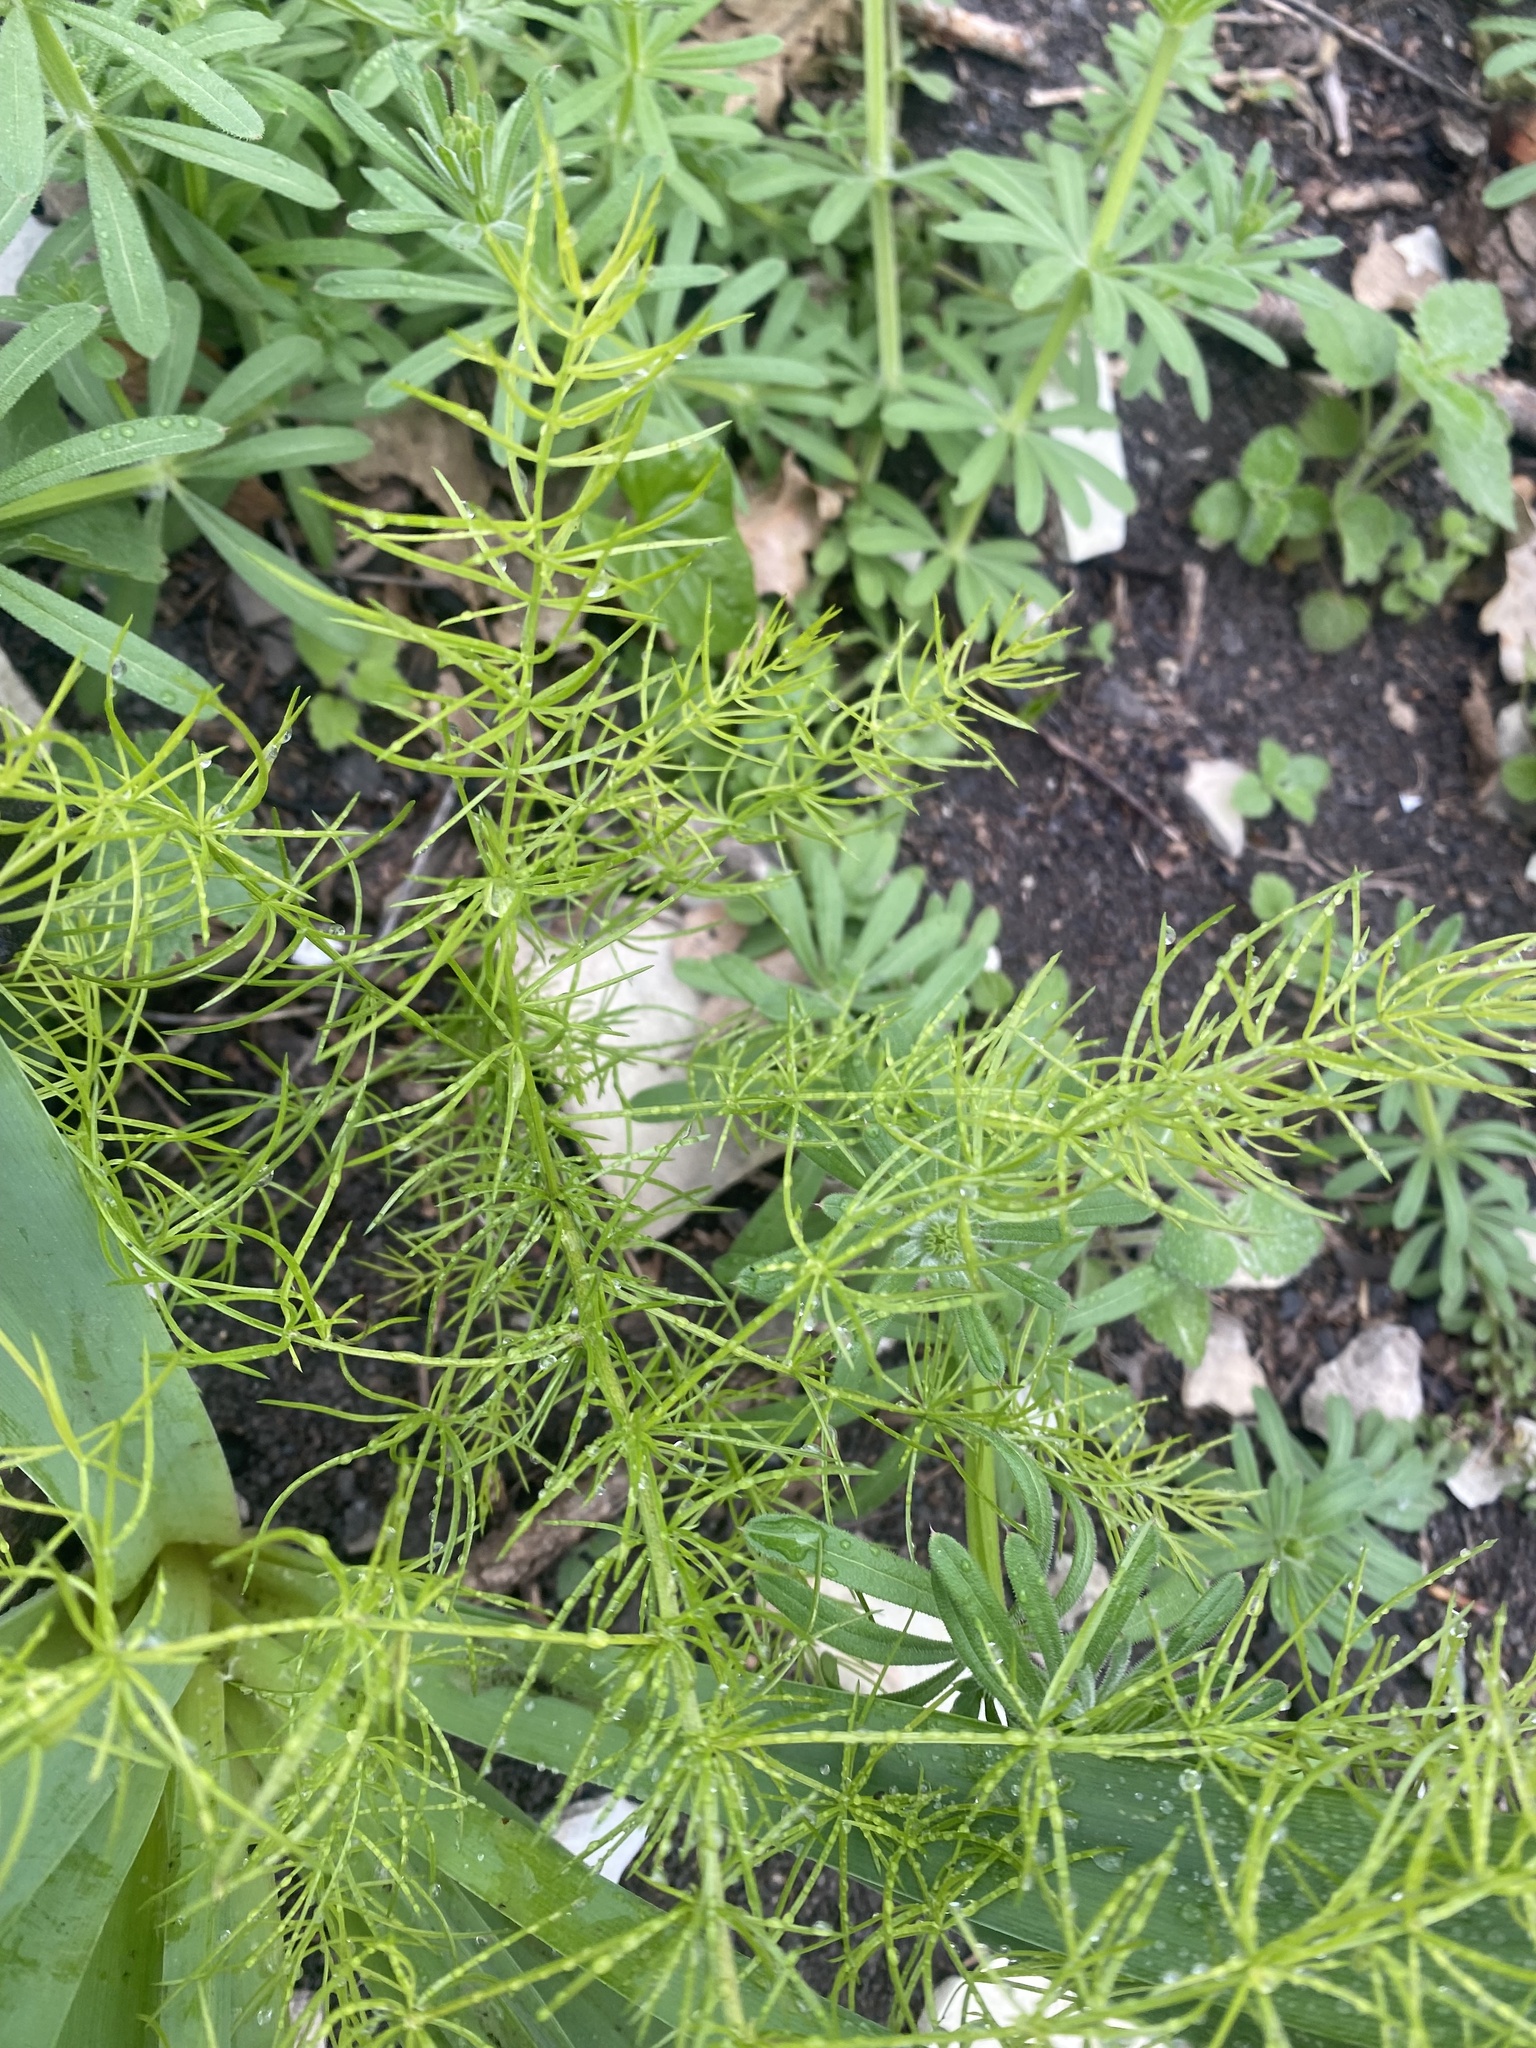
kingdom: Plantae
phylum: Tracheophyta
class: Liliopsida
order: Asparagales
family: Asparagaceae
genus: Asparagus
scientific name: Asparagus verticillatus
